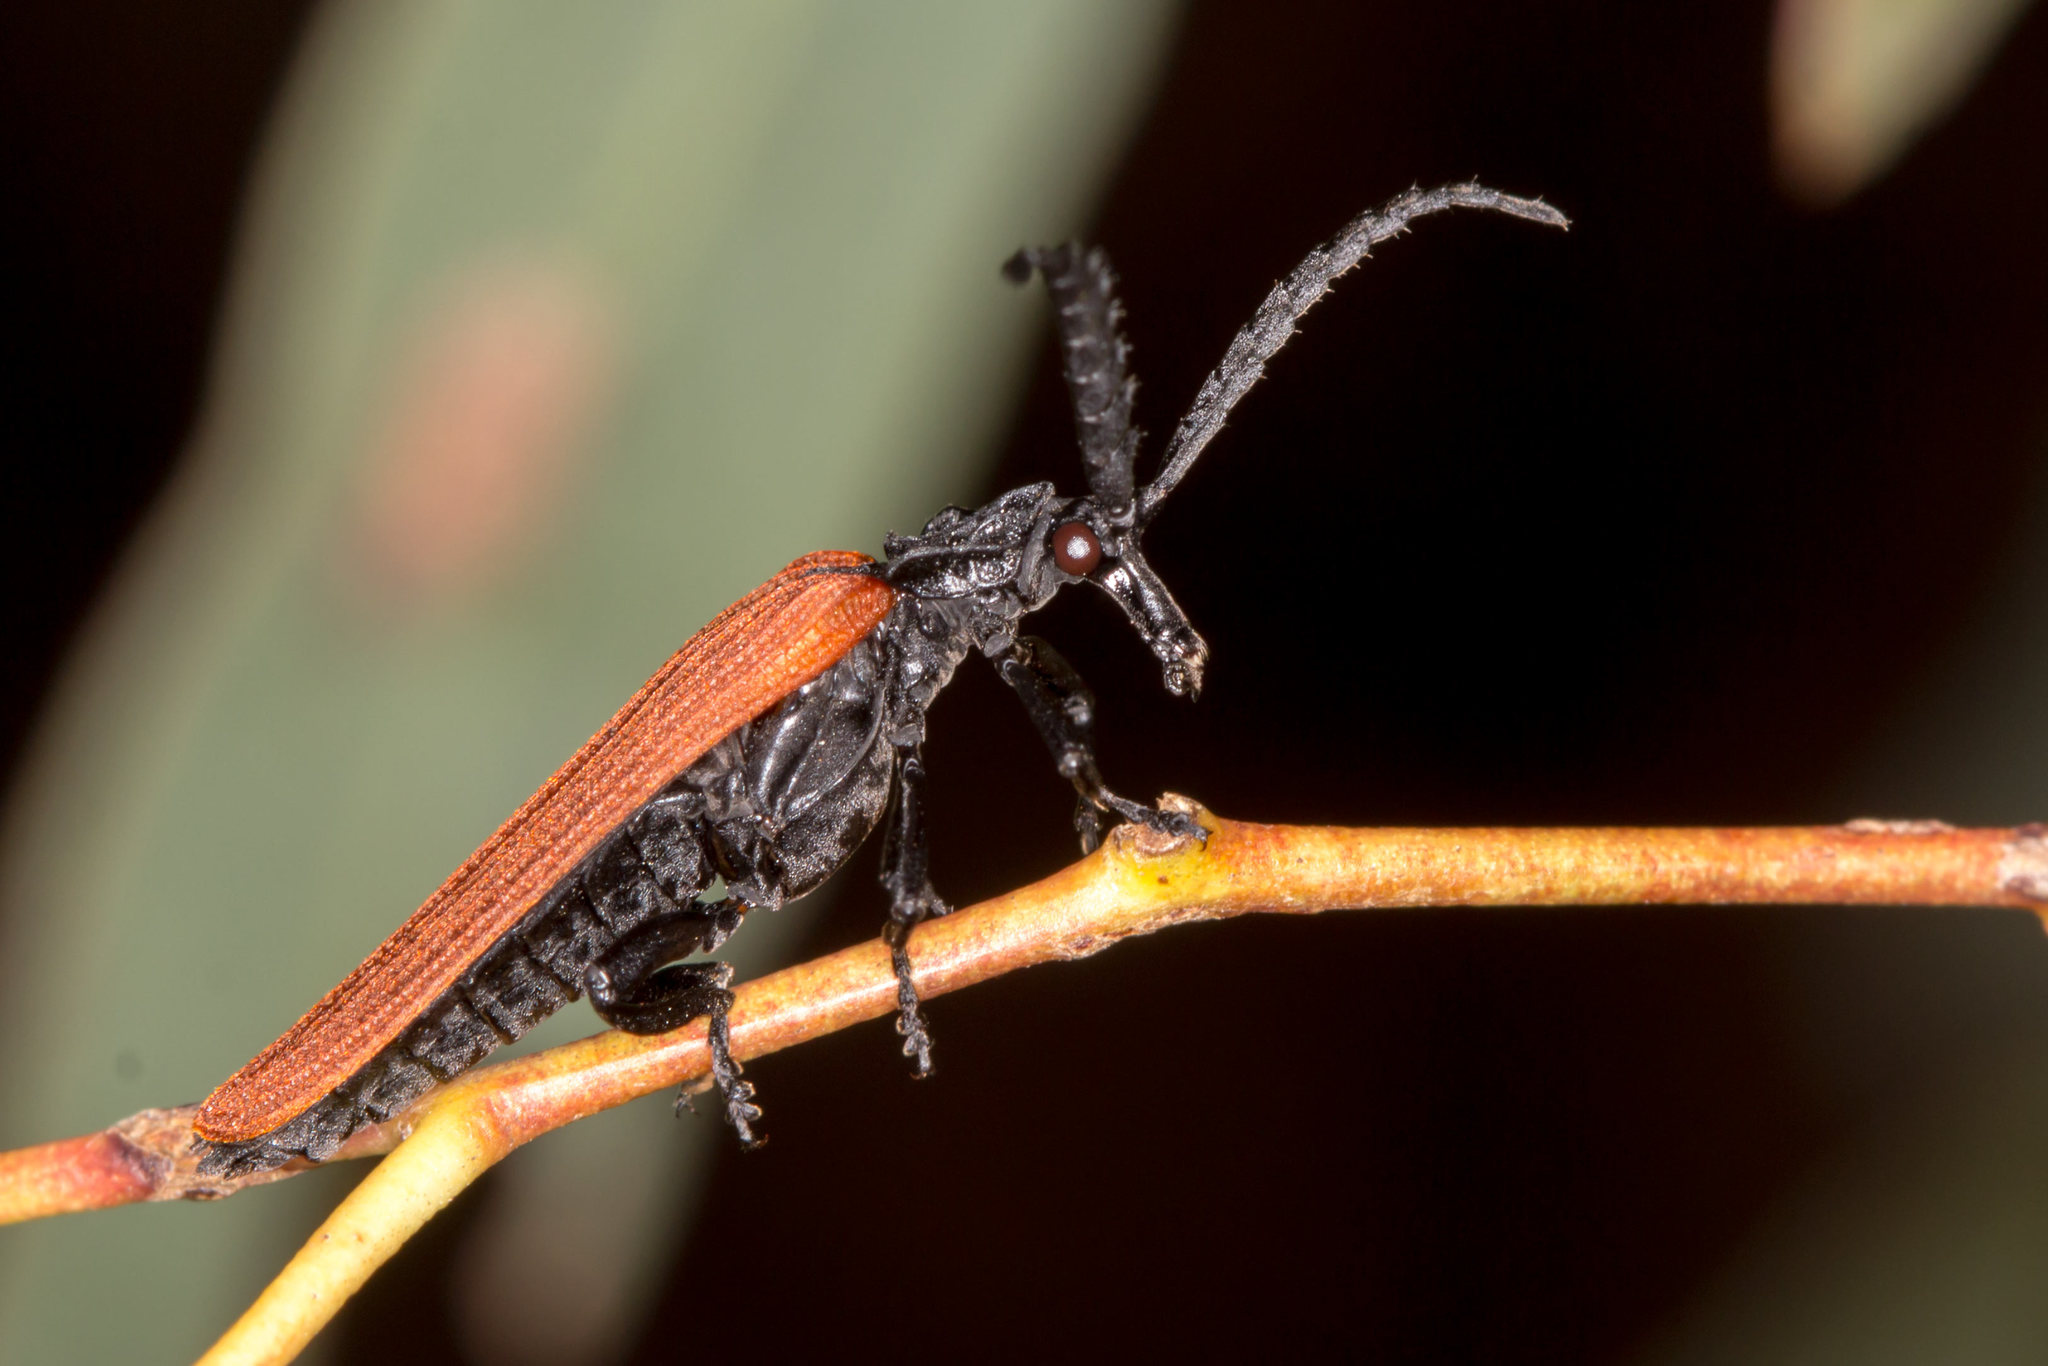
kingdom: Animalia
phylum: Arthropoda
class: Insecta
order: Coleoptera
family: Lycidae
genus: Porrostoma
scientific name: Porrostoma rhipidium
